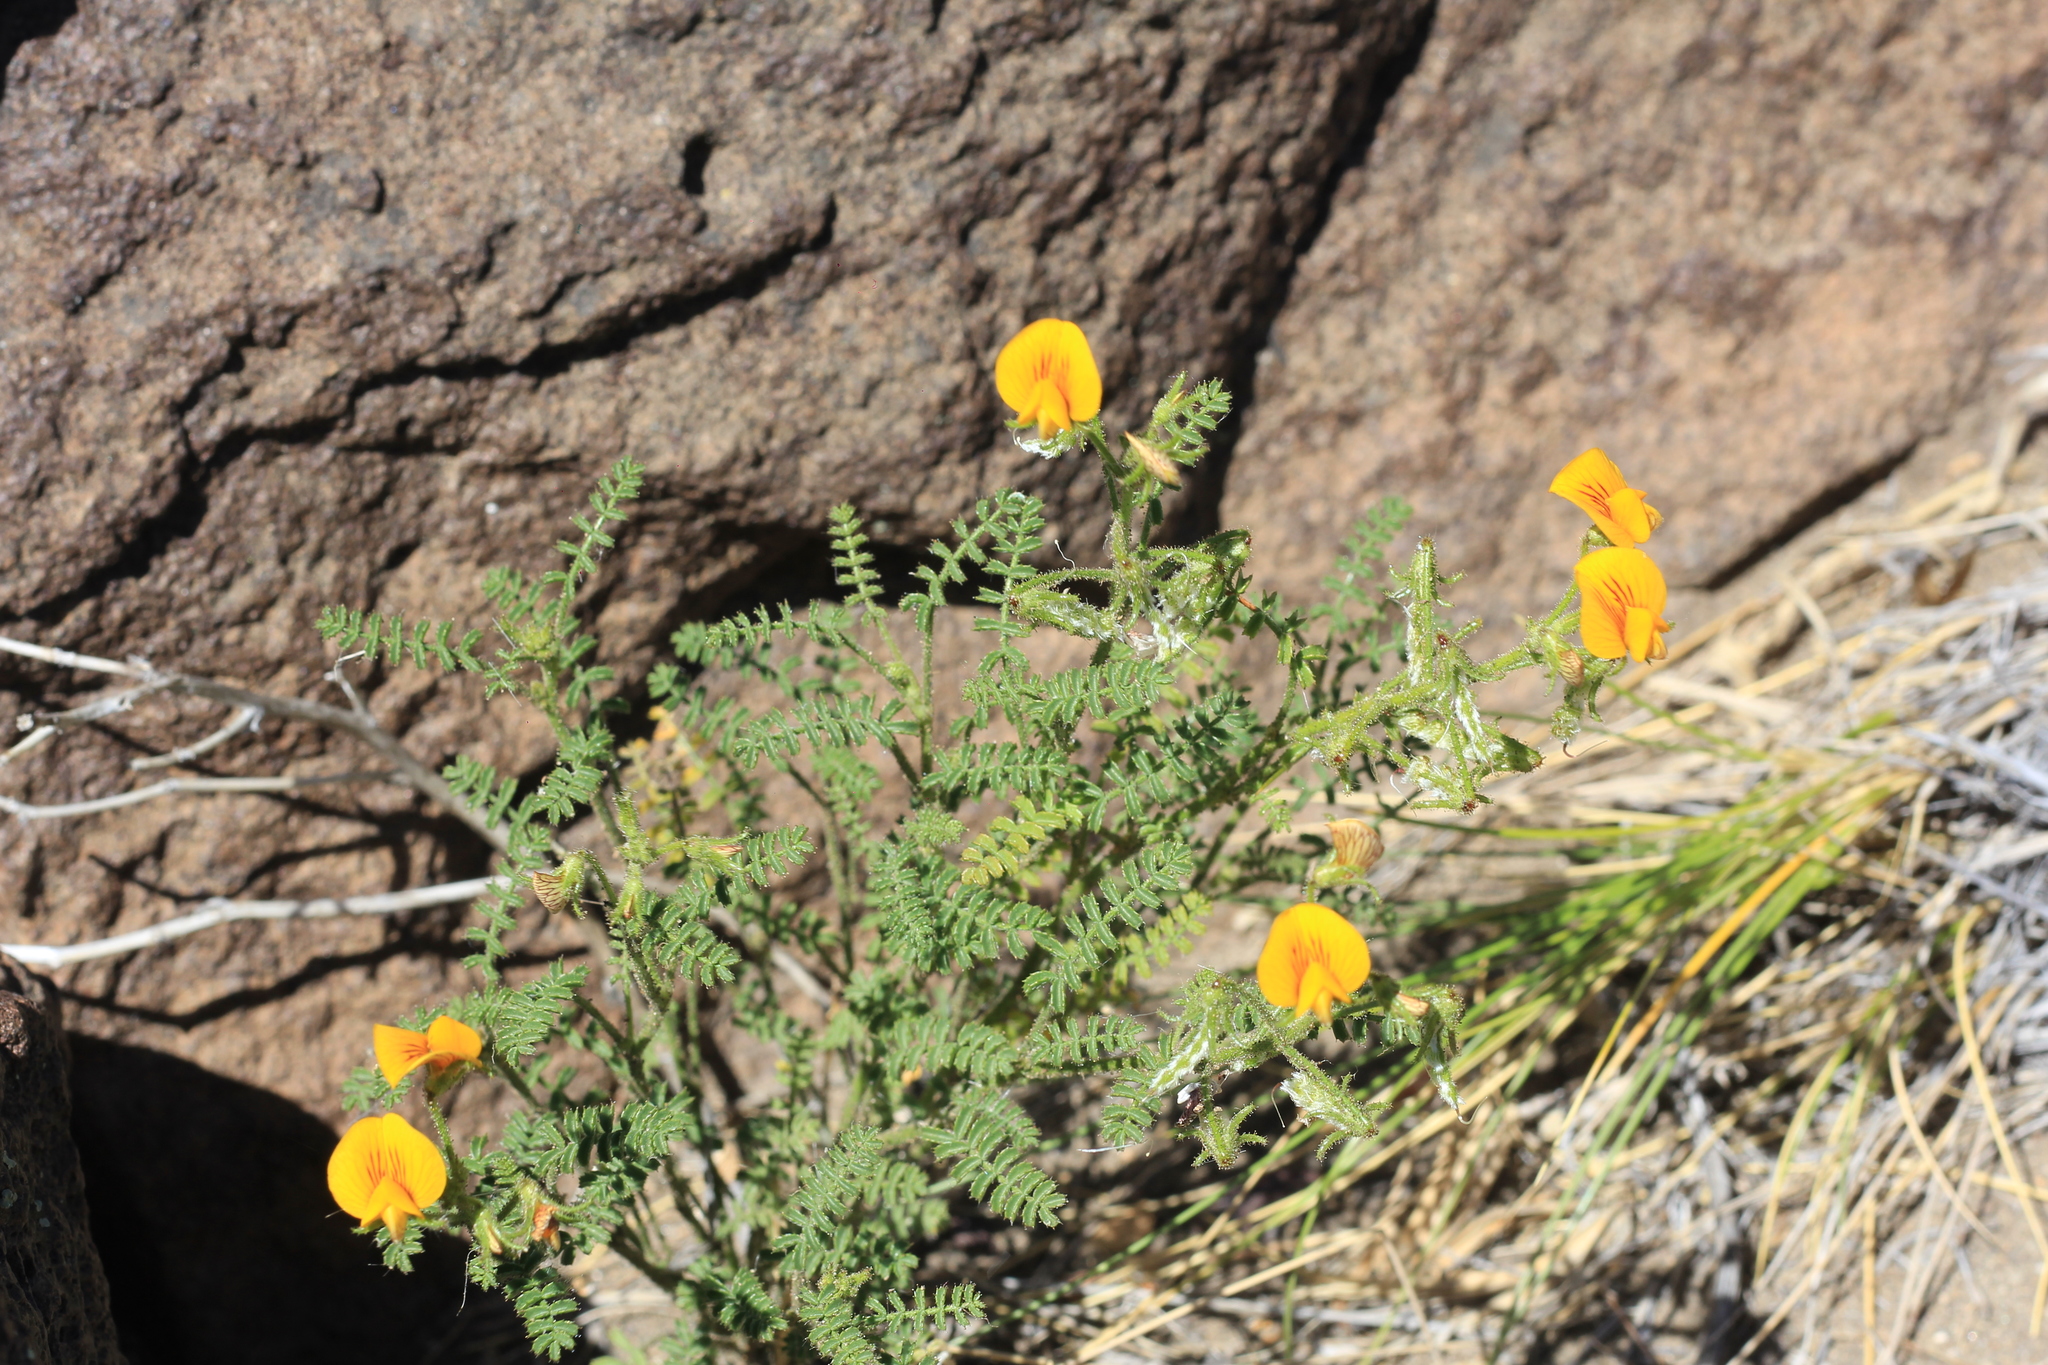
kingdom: Plantae
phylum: Tracheophyta
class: Magnoliopsida
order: Fabales
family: Fabaceae
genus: Adesmia
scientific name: Adesmia boronioides
